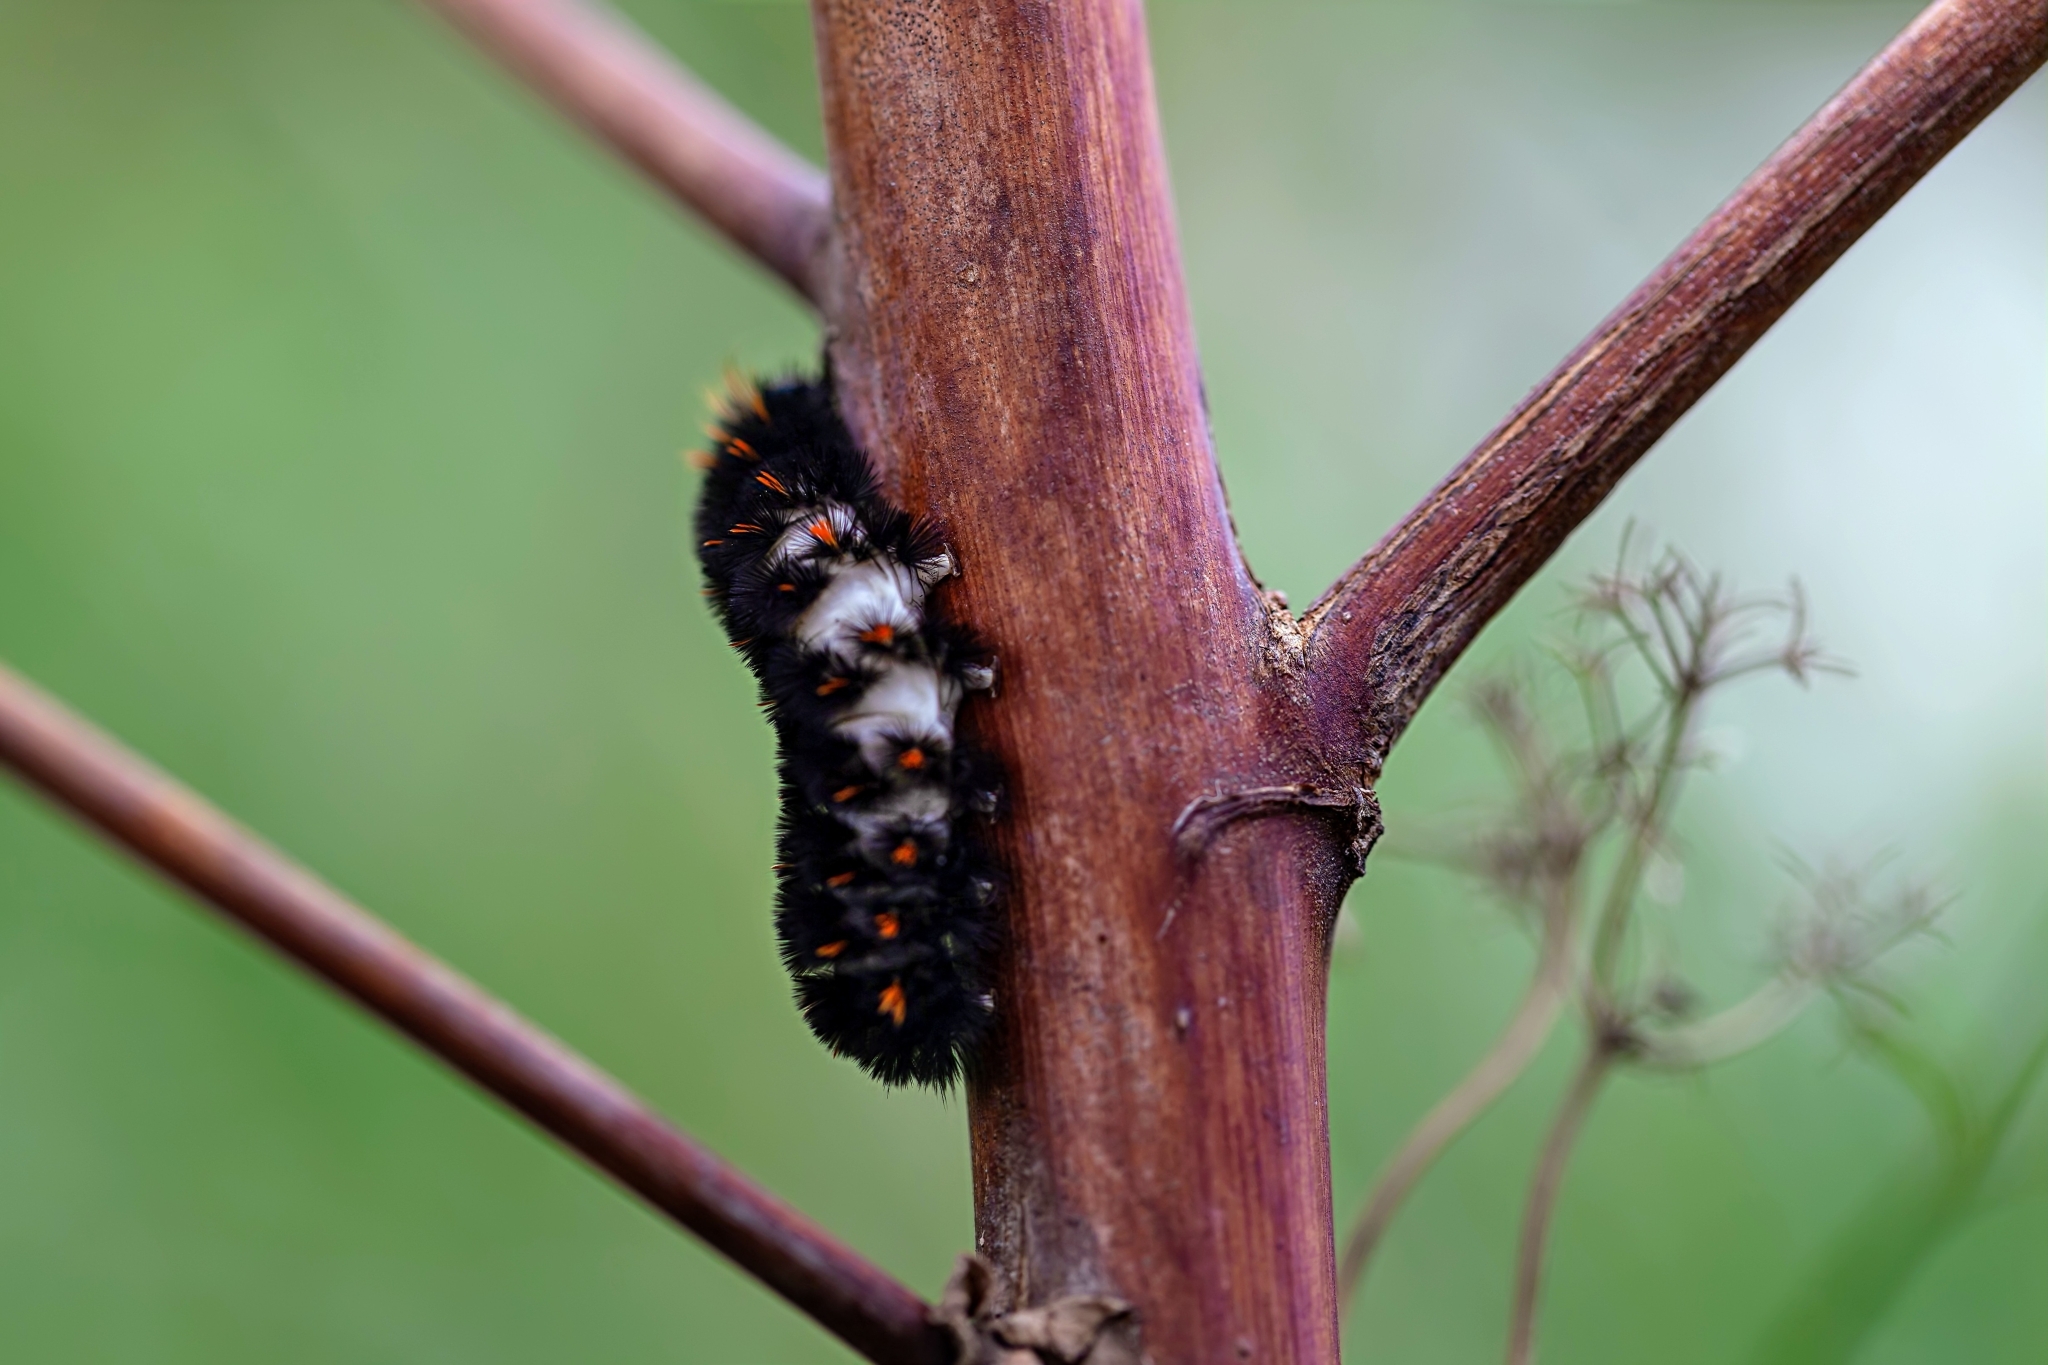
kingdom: Animalia
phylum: Arthropoda
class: Insecta
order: Lepidoptera
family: Erebidae
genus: Spilosoma
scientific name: Spilosoma congrua
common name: Agreeable tiger moth
